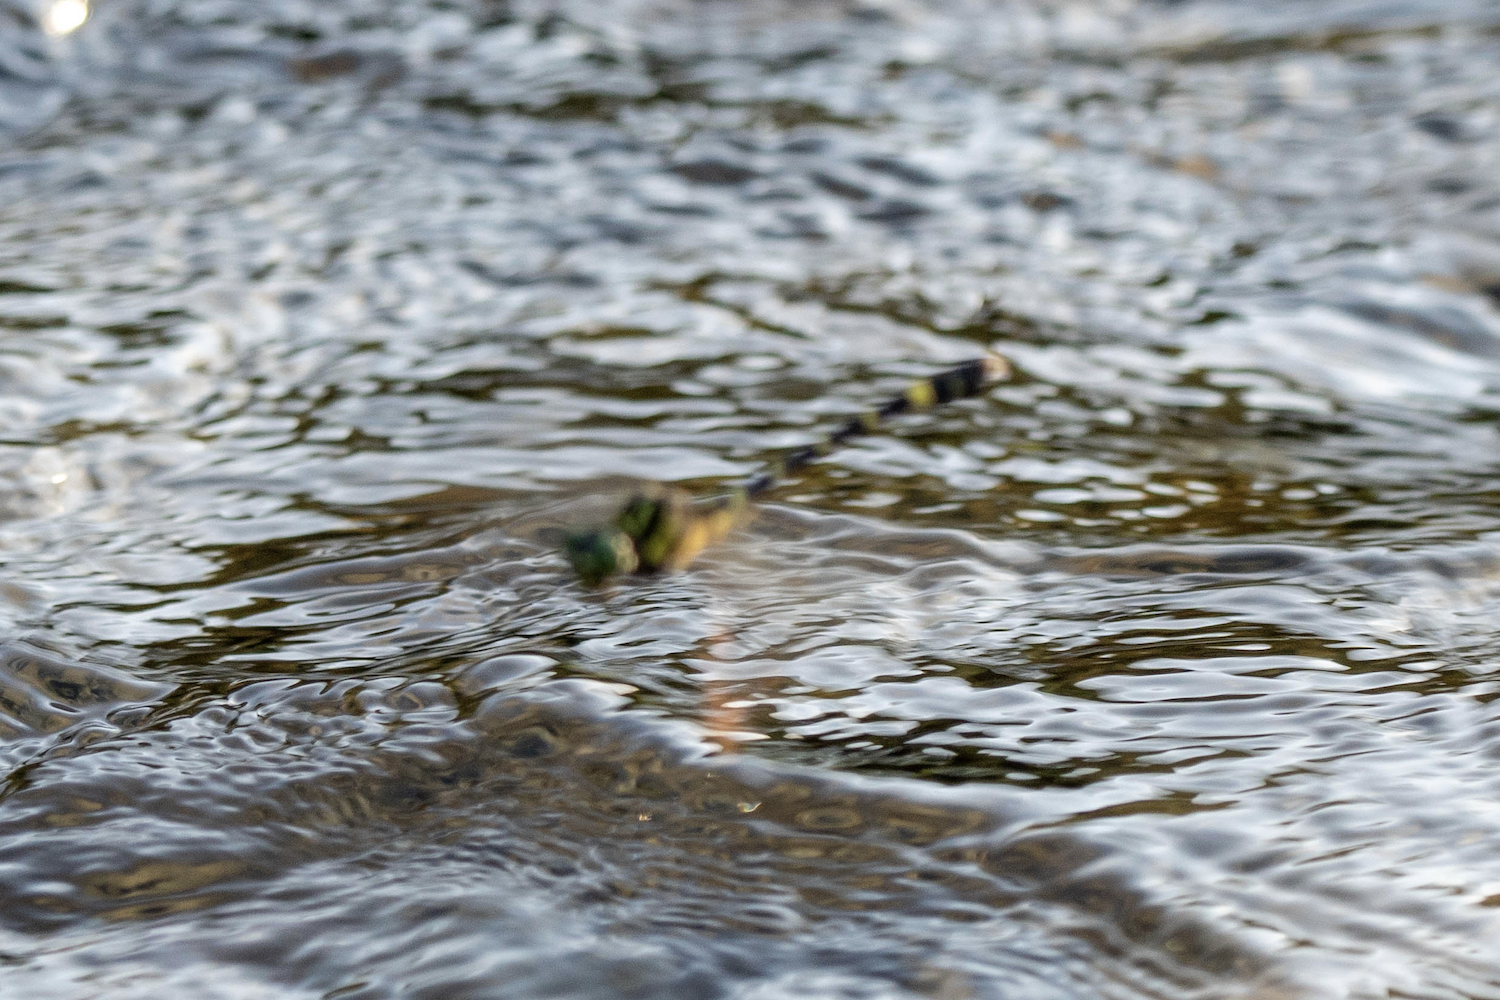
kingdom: Animalia
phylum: Arthropoda
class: Insecta
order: Odonata
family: Gomphidae
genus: Lamelligomphus
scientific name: Lamelligomphus formosanus
